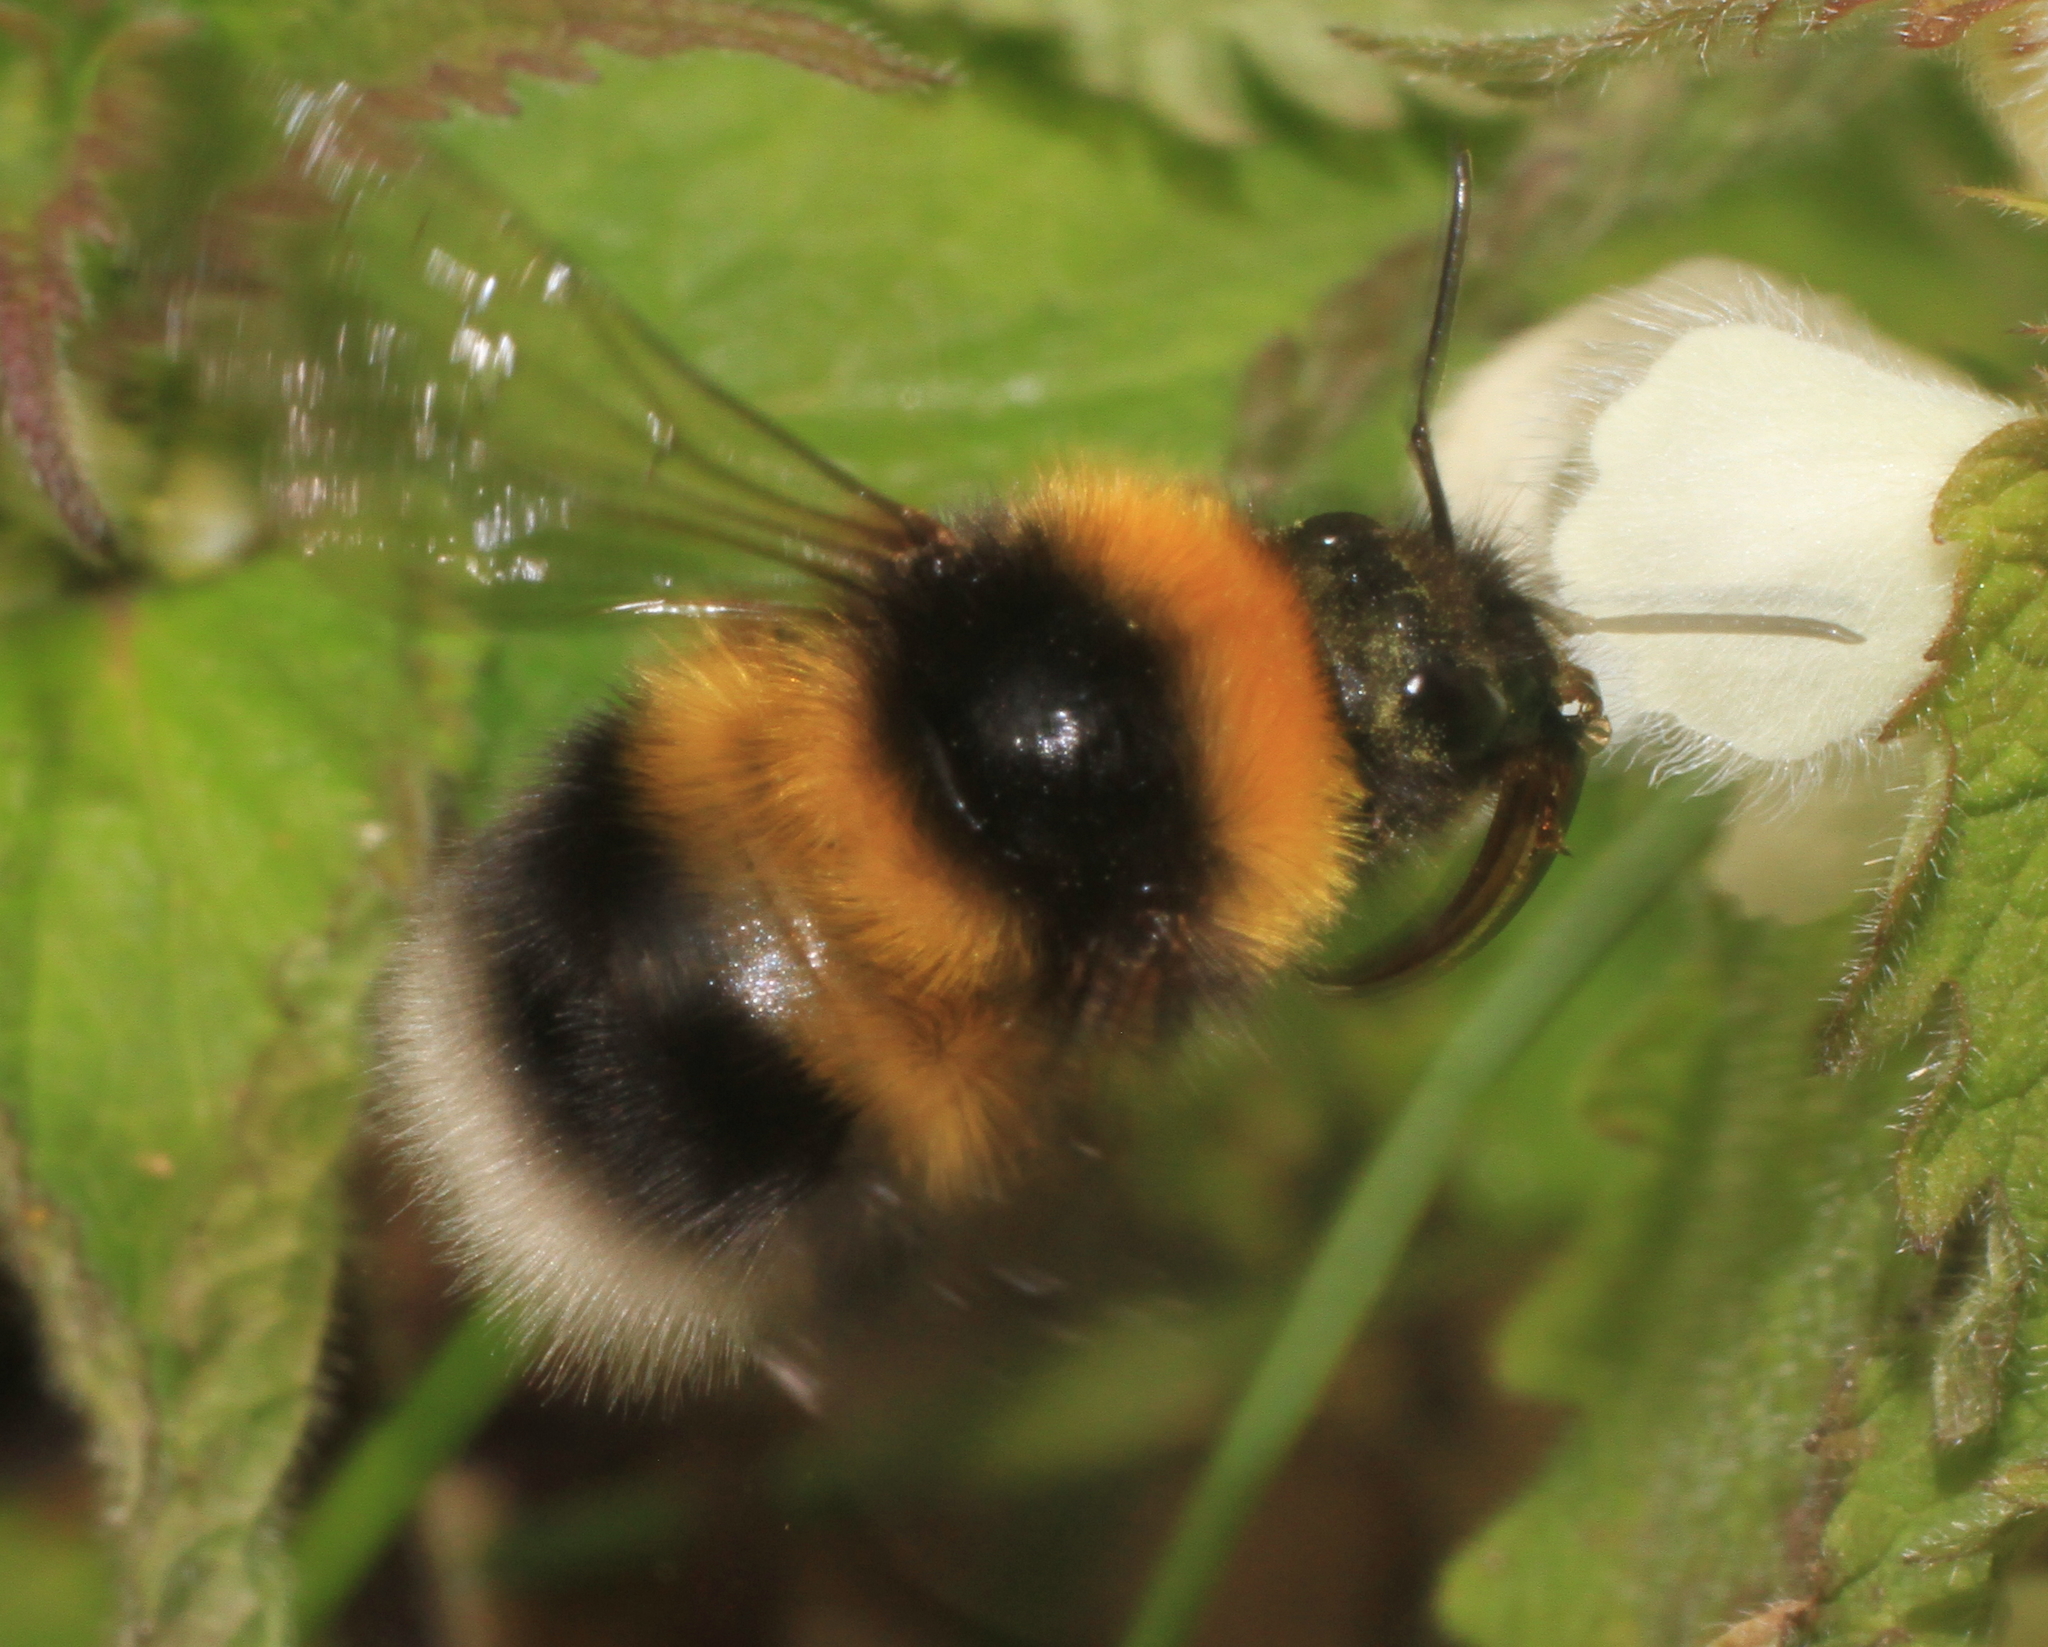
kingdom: Animalia
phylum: Arthropoda
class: Insecta
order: Hymenoptera
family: Apidae
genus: Bombus
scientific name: Bombus hortorum
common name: Garden bumblebee
